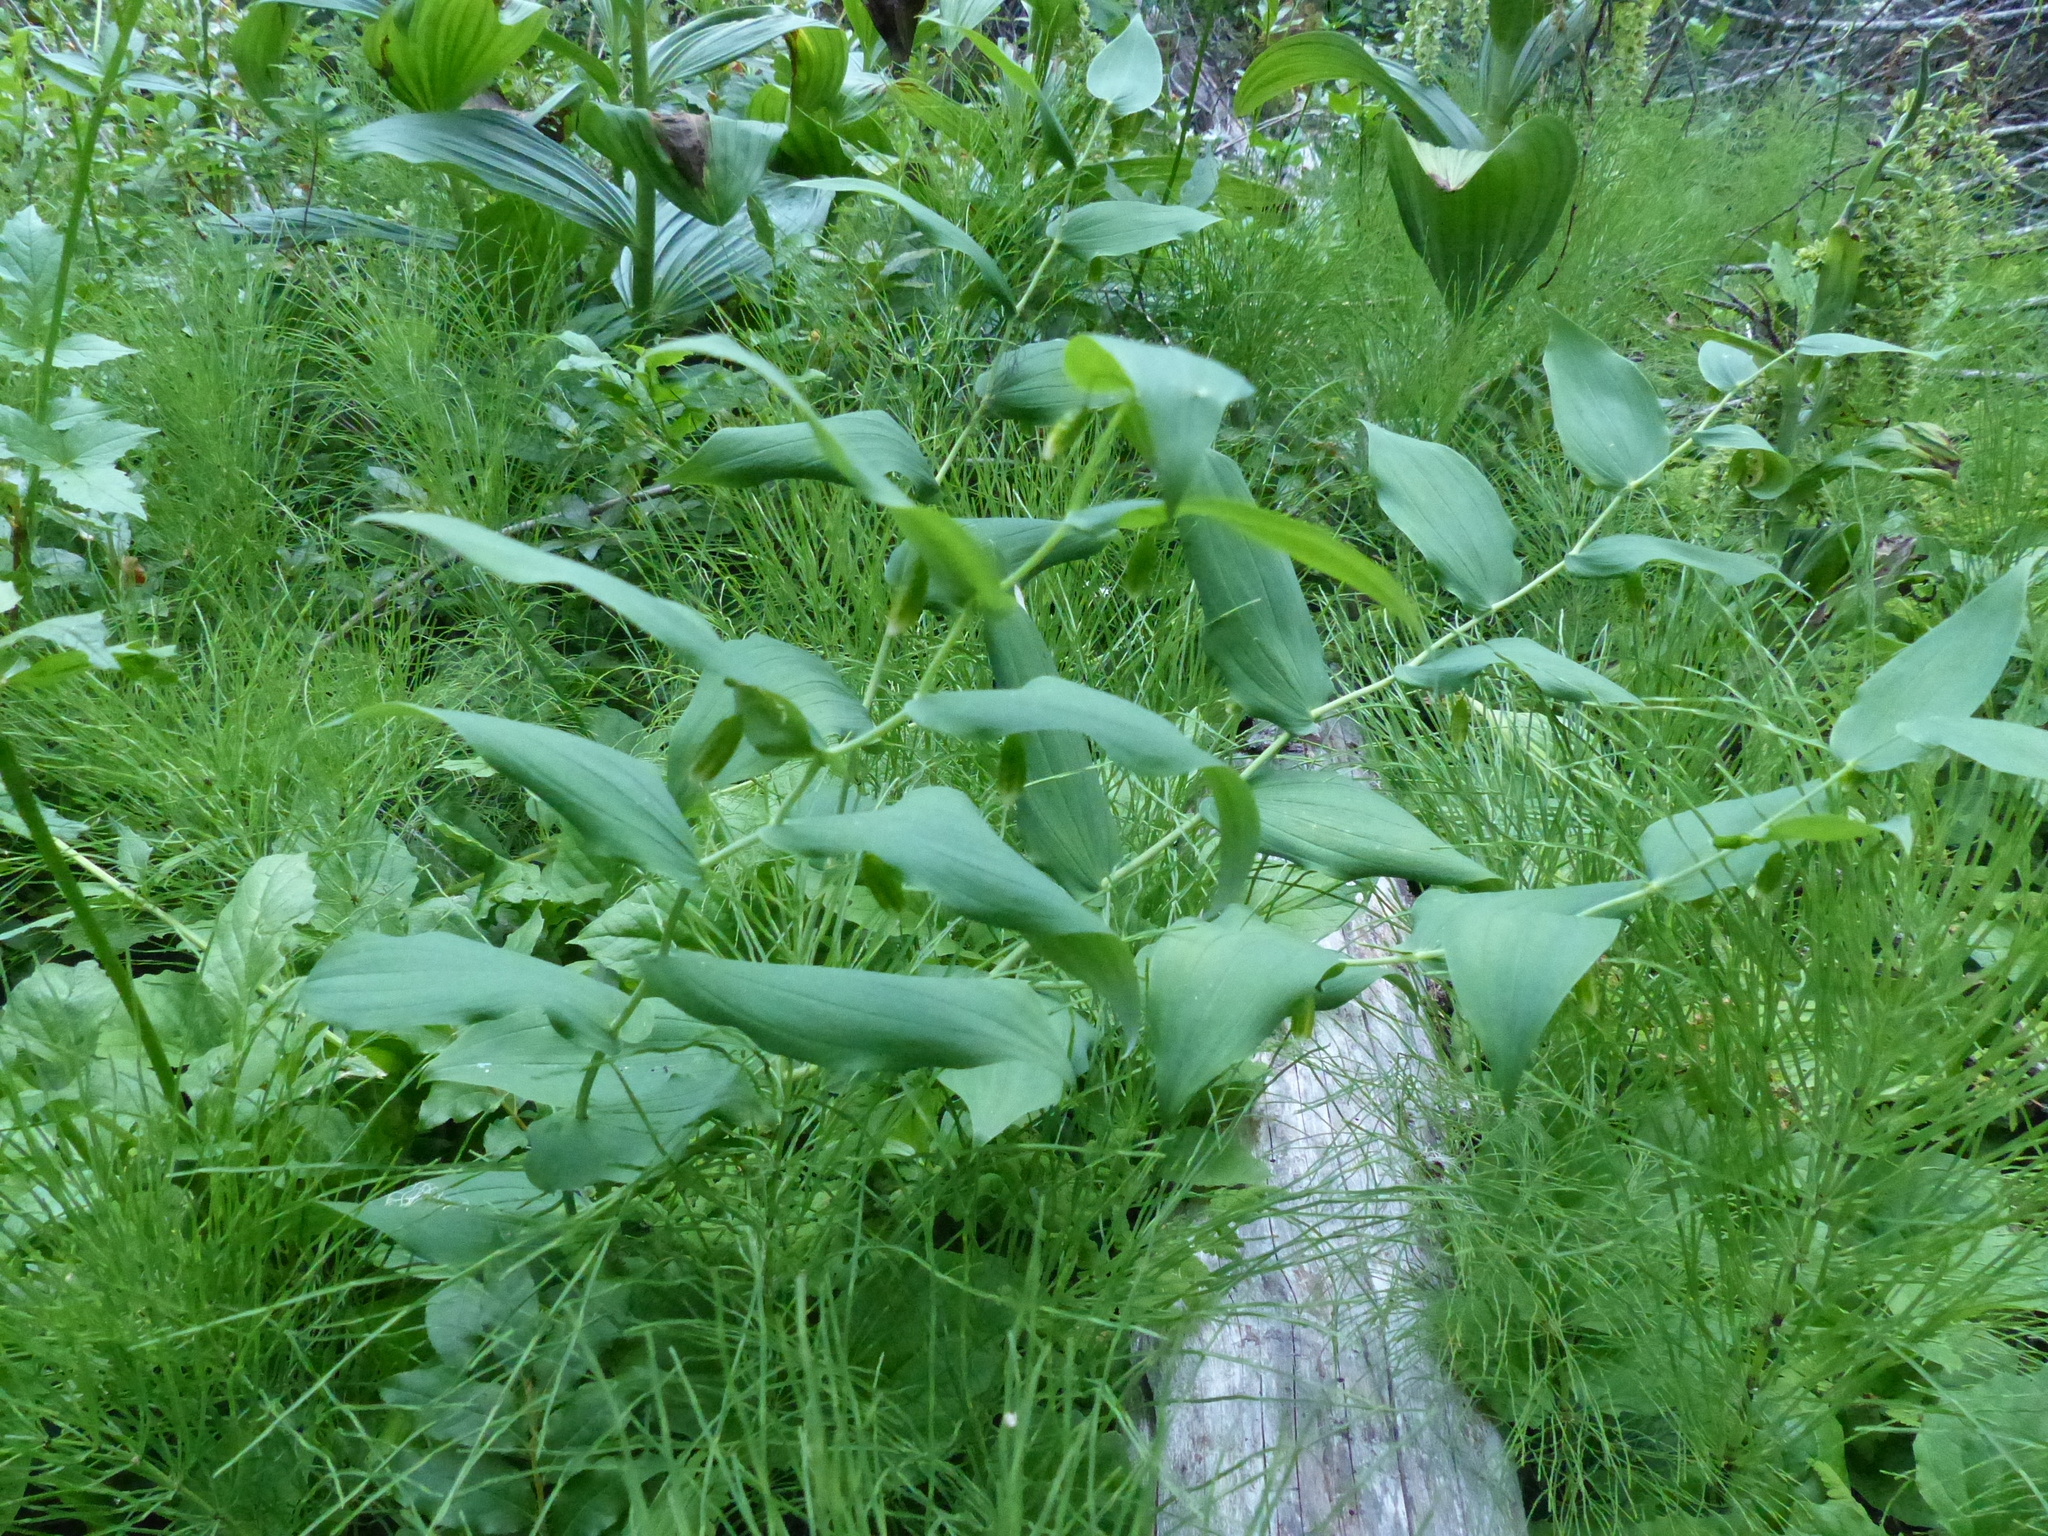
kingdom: Plantae
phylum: Tracheophyta
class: Liliopsida
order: Liliales
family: Liliaceae
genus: Streptopus
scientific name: Streptopus amplexifolius
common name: Clasp twisted stalk
